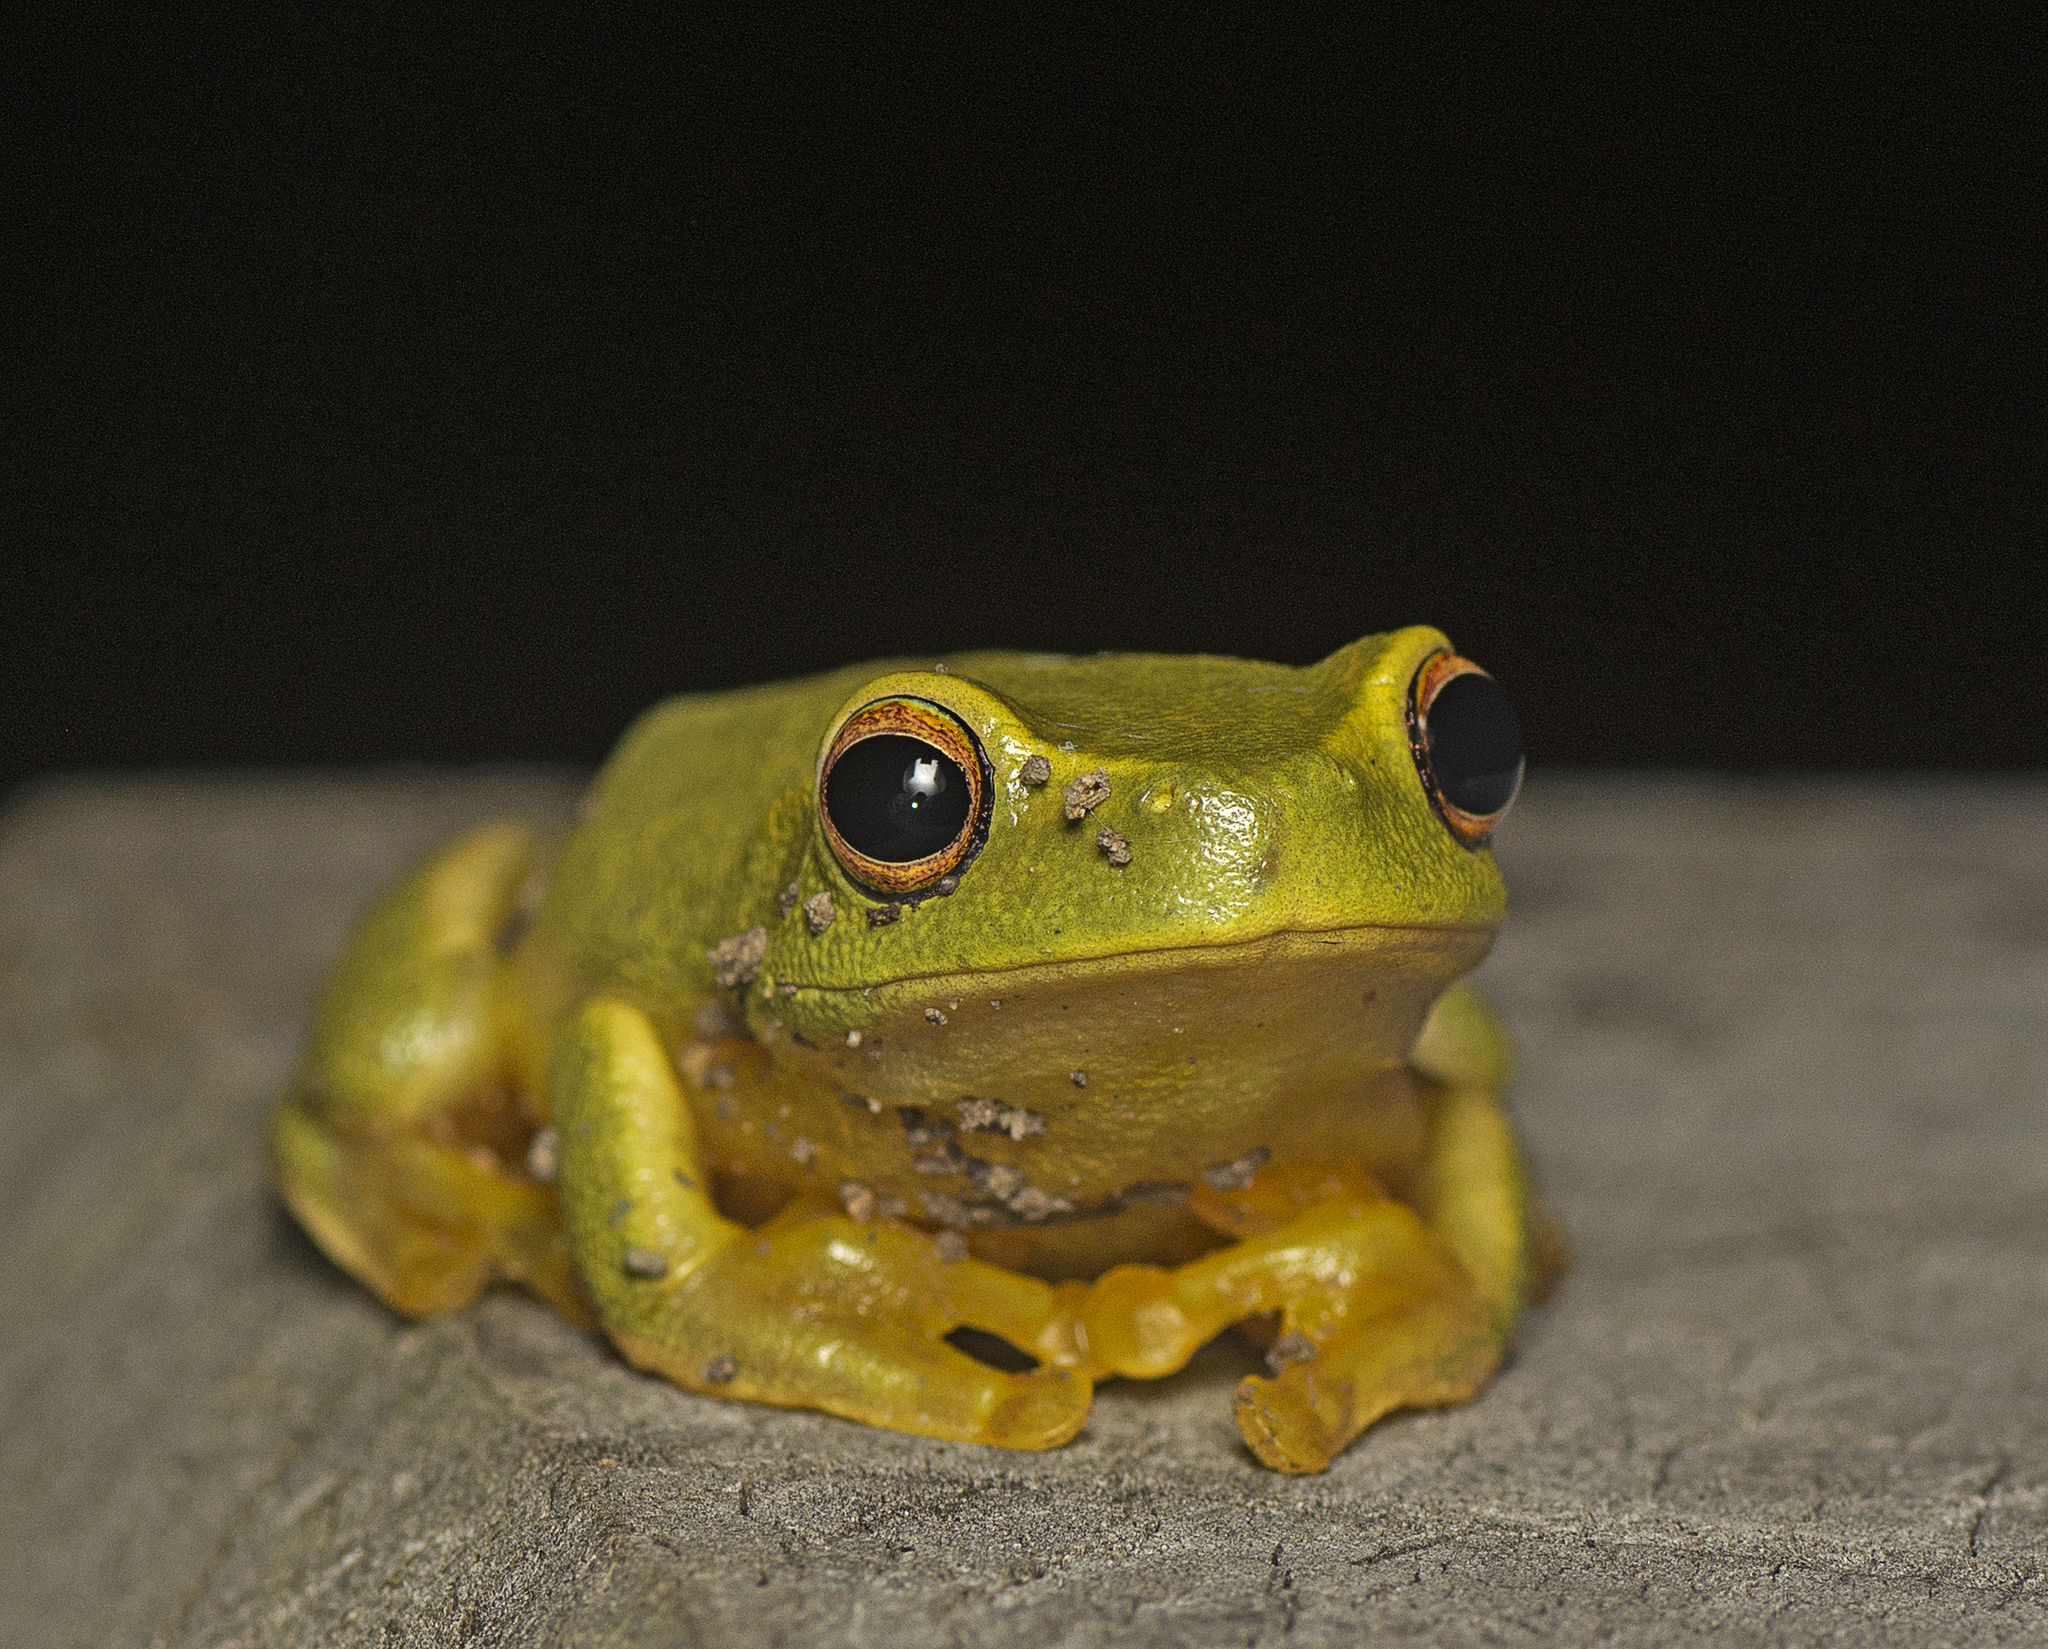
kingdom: Animalia
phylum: Chordata
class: Amphibia
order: Anura
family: Pelodryadidae
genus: Ranoidea
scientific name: Ranoidea gracilenta
